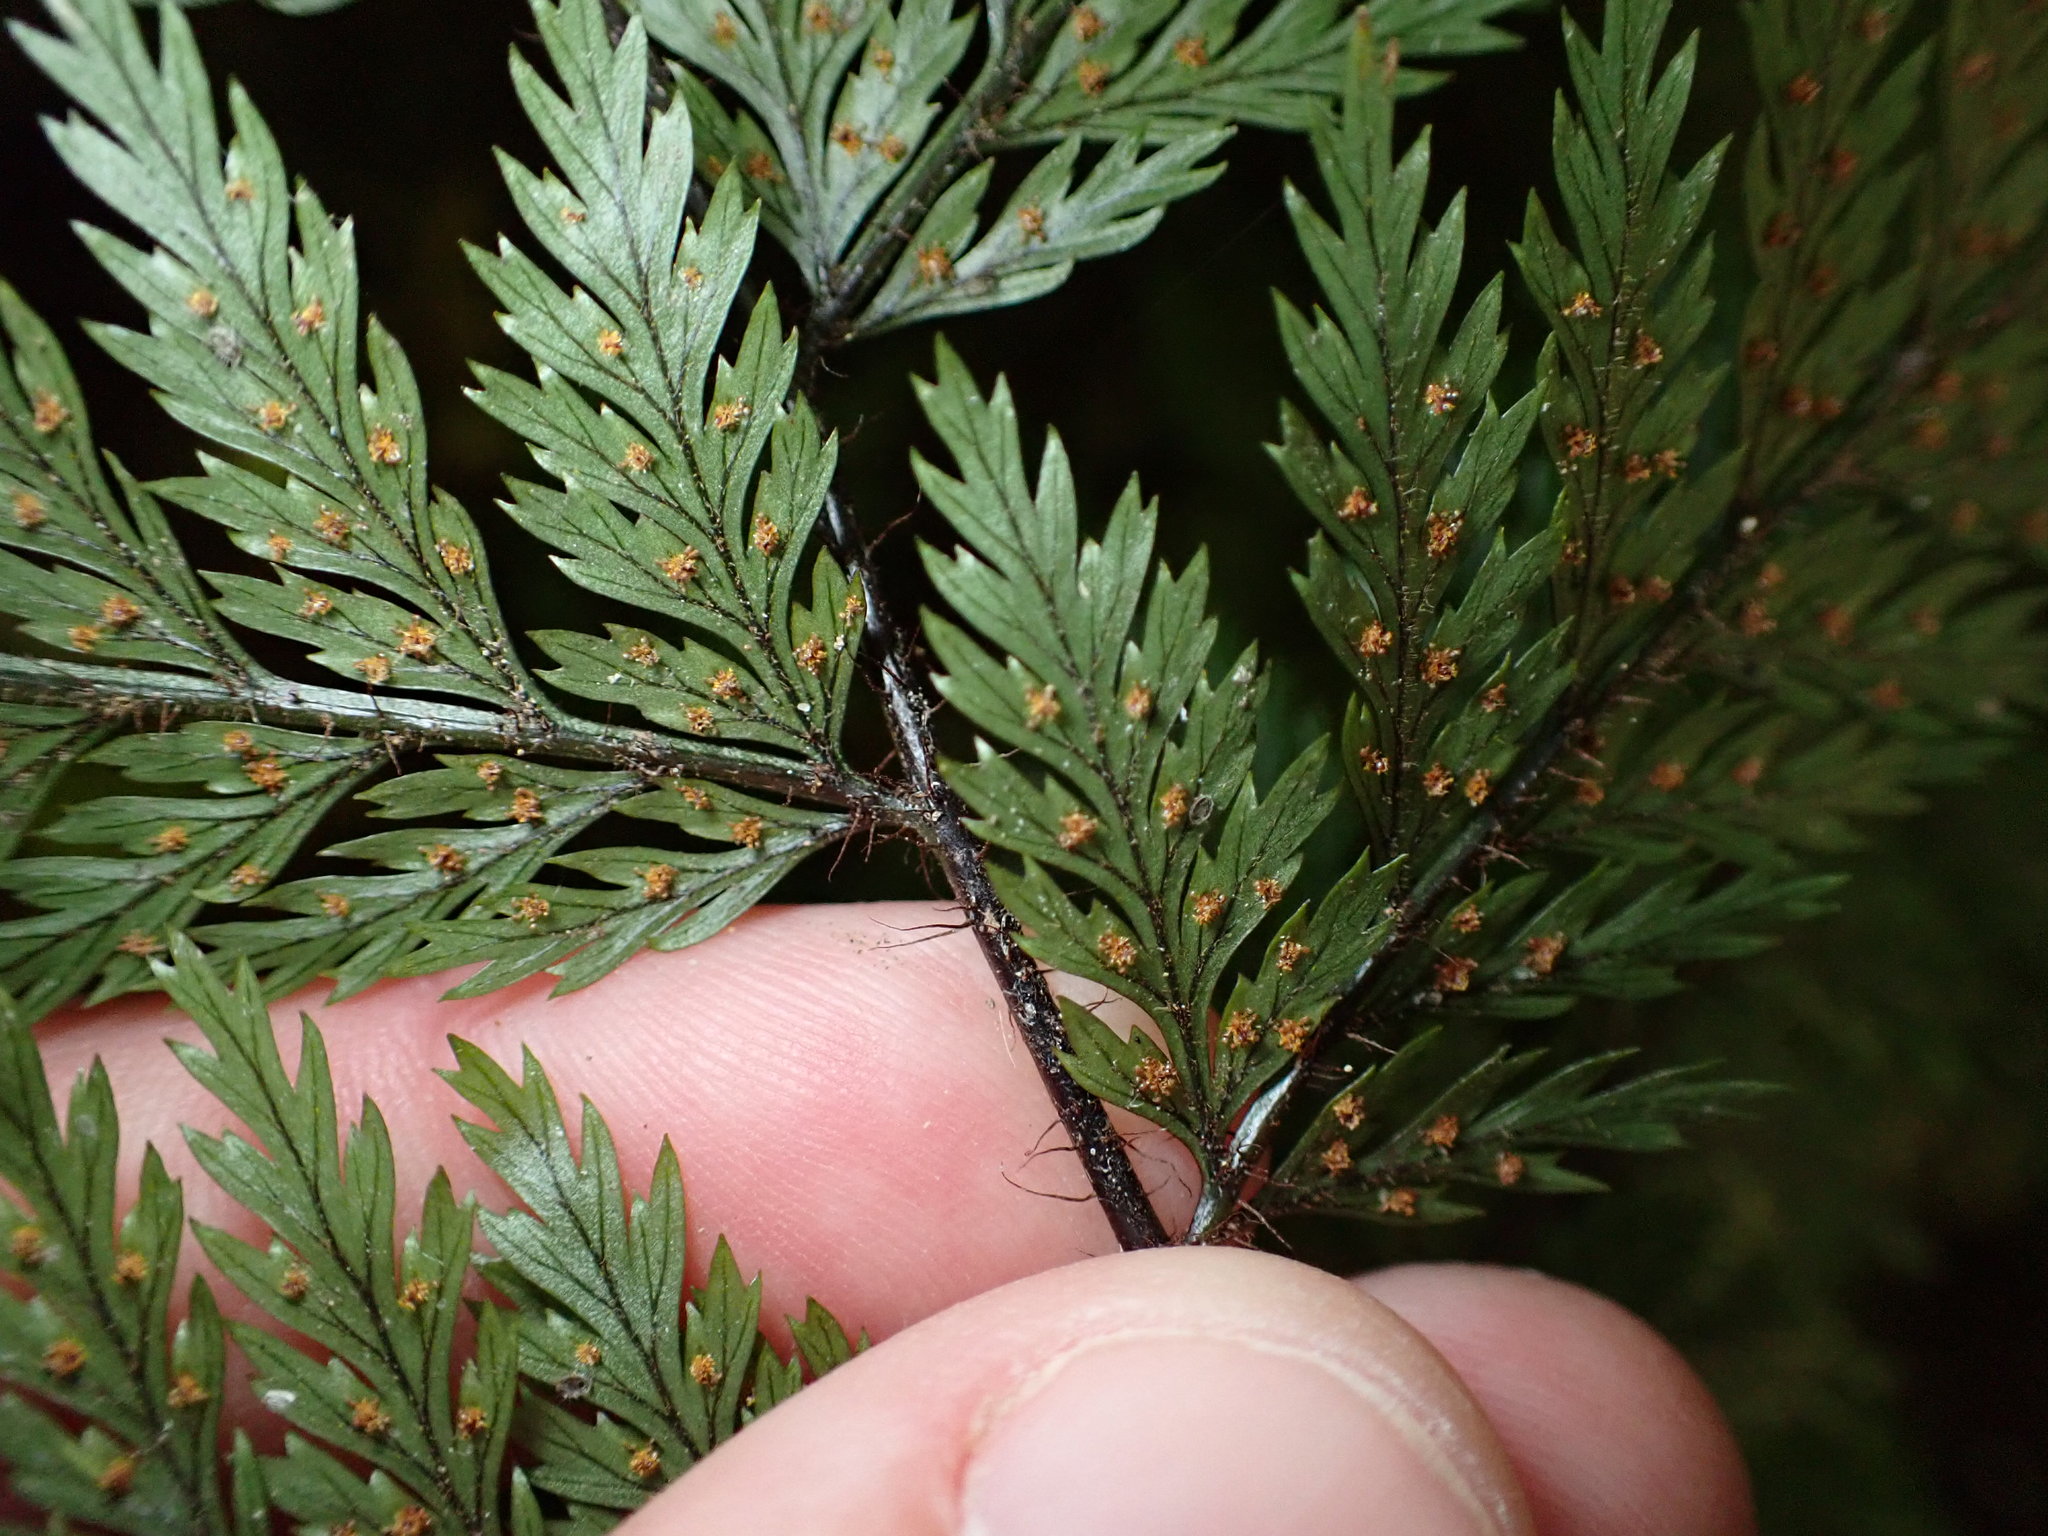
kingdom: Plantae
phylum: Tracheophyta
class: Polypodiopsida
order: Polypodiales
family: Dryopteridaceae
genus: Lastreopsis
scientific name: Lastreopsis hispida
